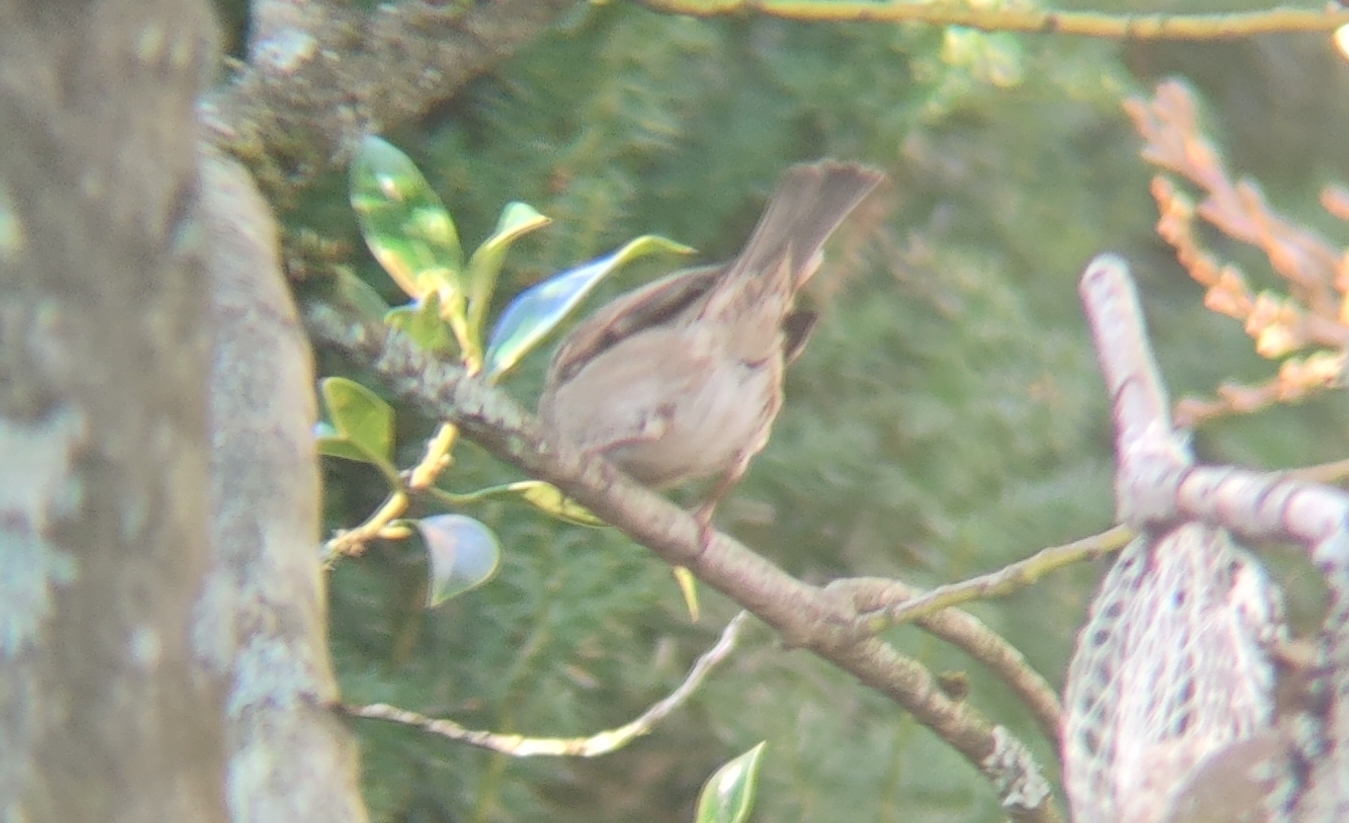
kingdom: Animalia
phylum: Chordata
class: Aves
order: Passeriformes
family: Passeridae
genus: Passer
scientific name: Passer domesticus
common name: House sparrow
